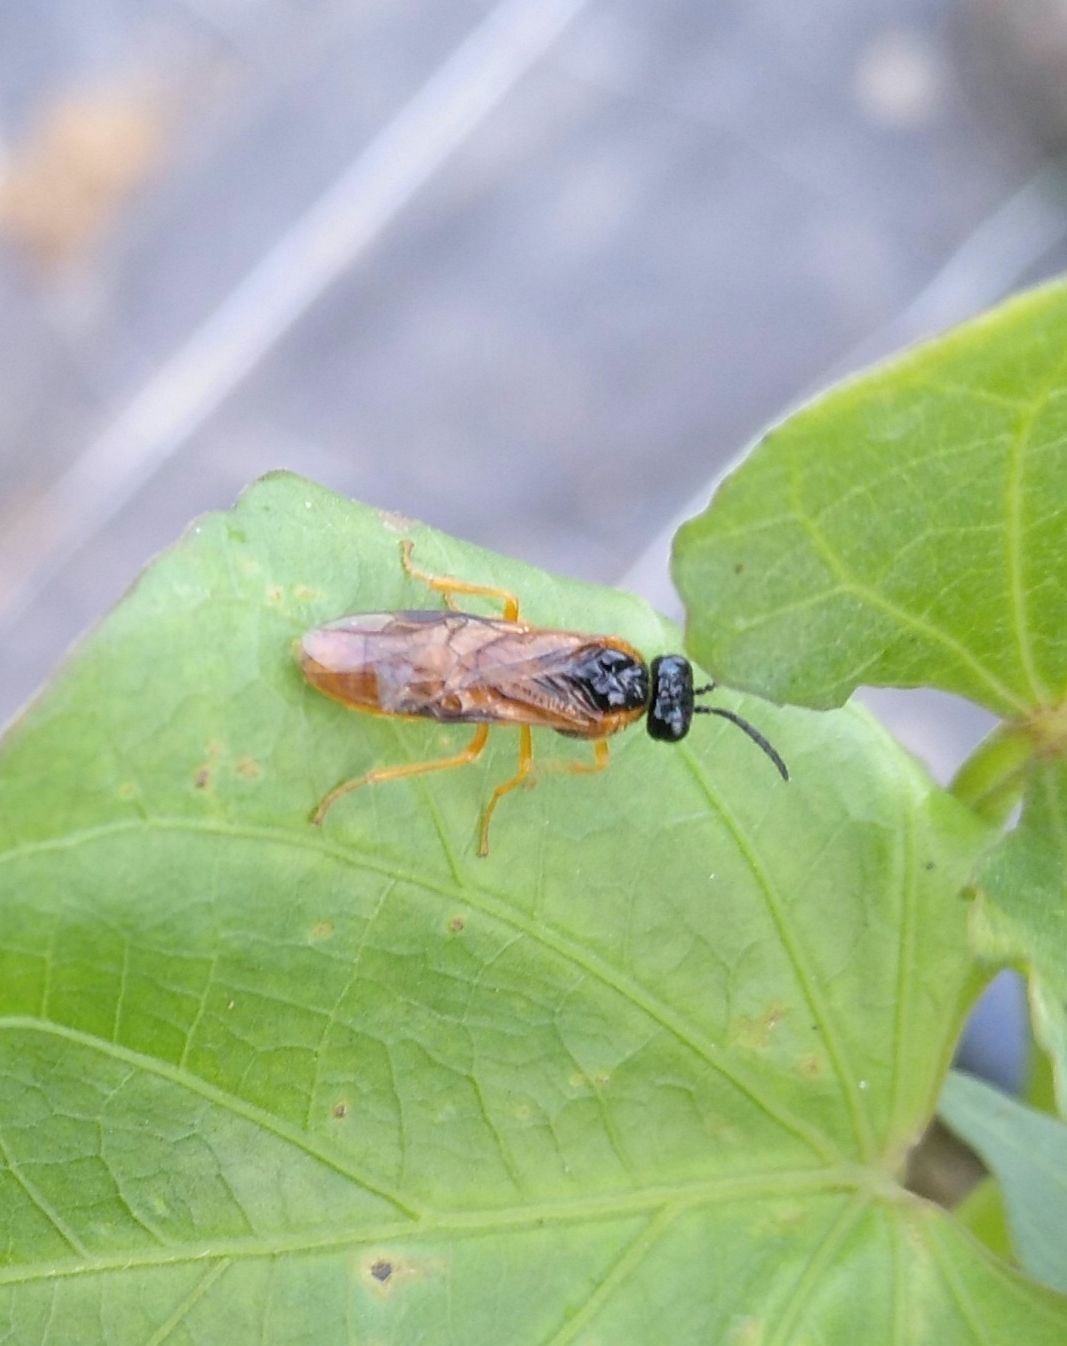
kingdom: Animalia
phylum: Arthropoda
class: Insecta
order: Hymenoptera
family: Tenthredinidae
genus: Selandria
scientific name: Selandria serva
